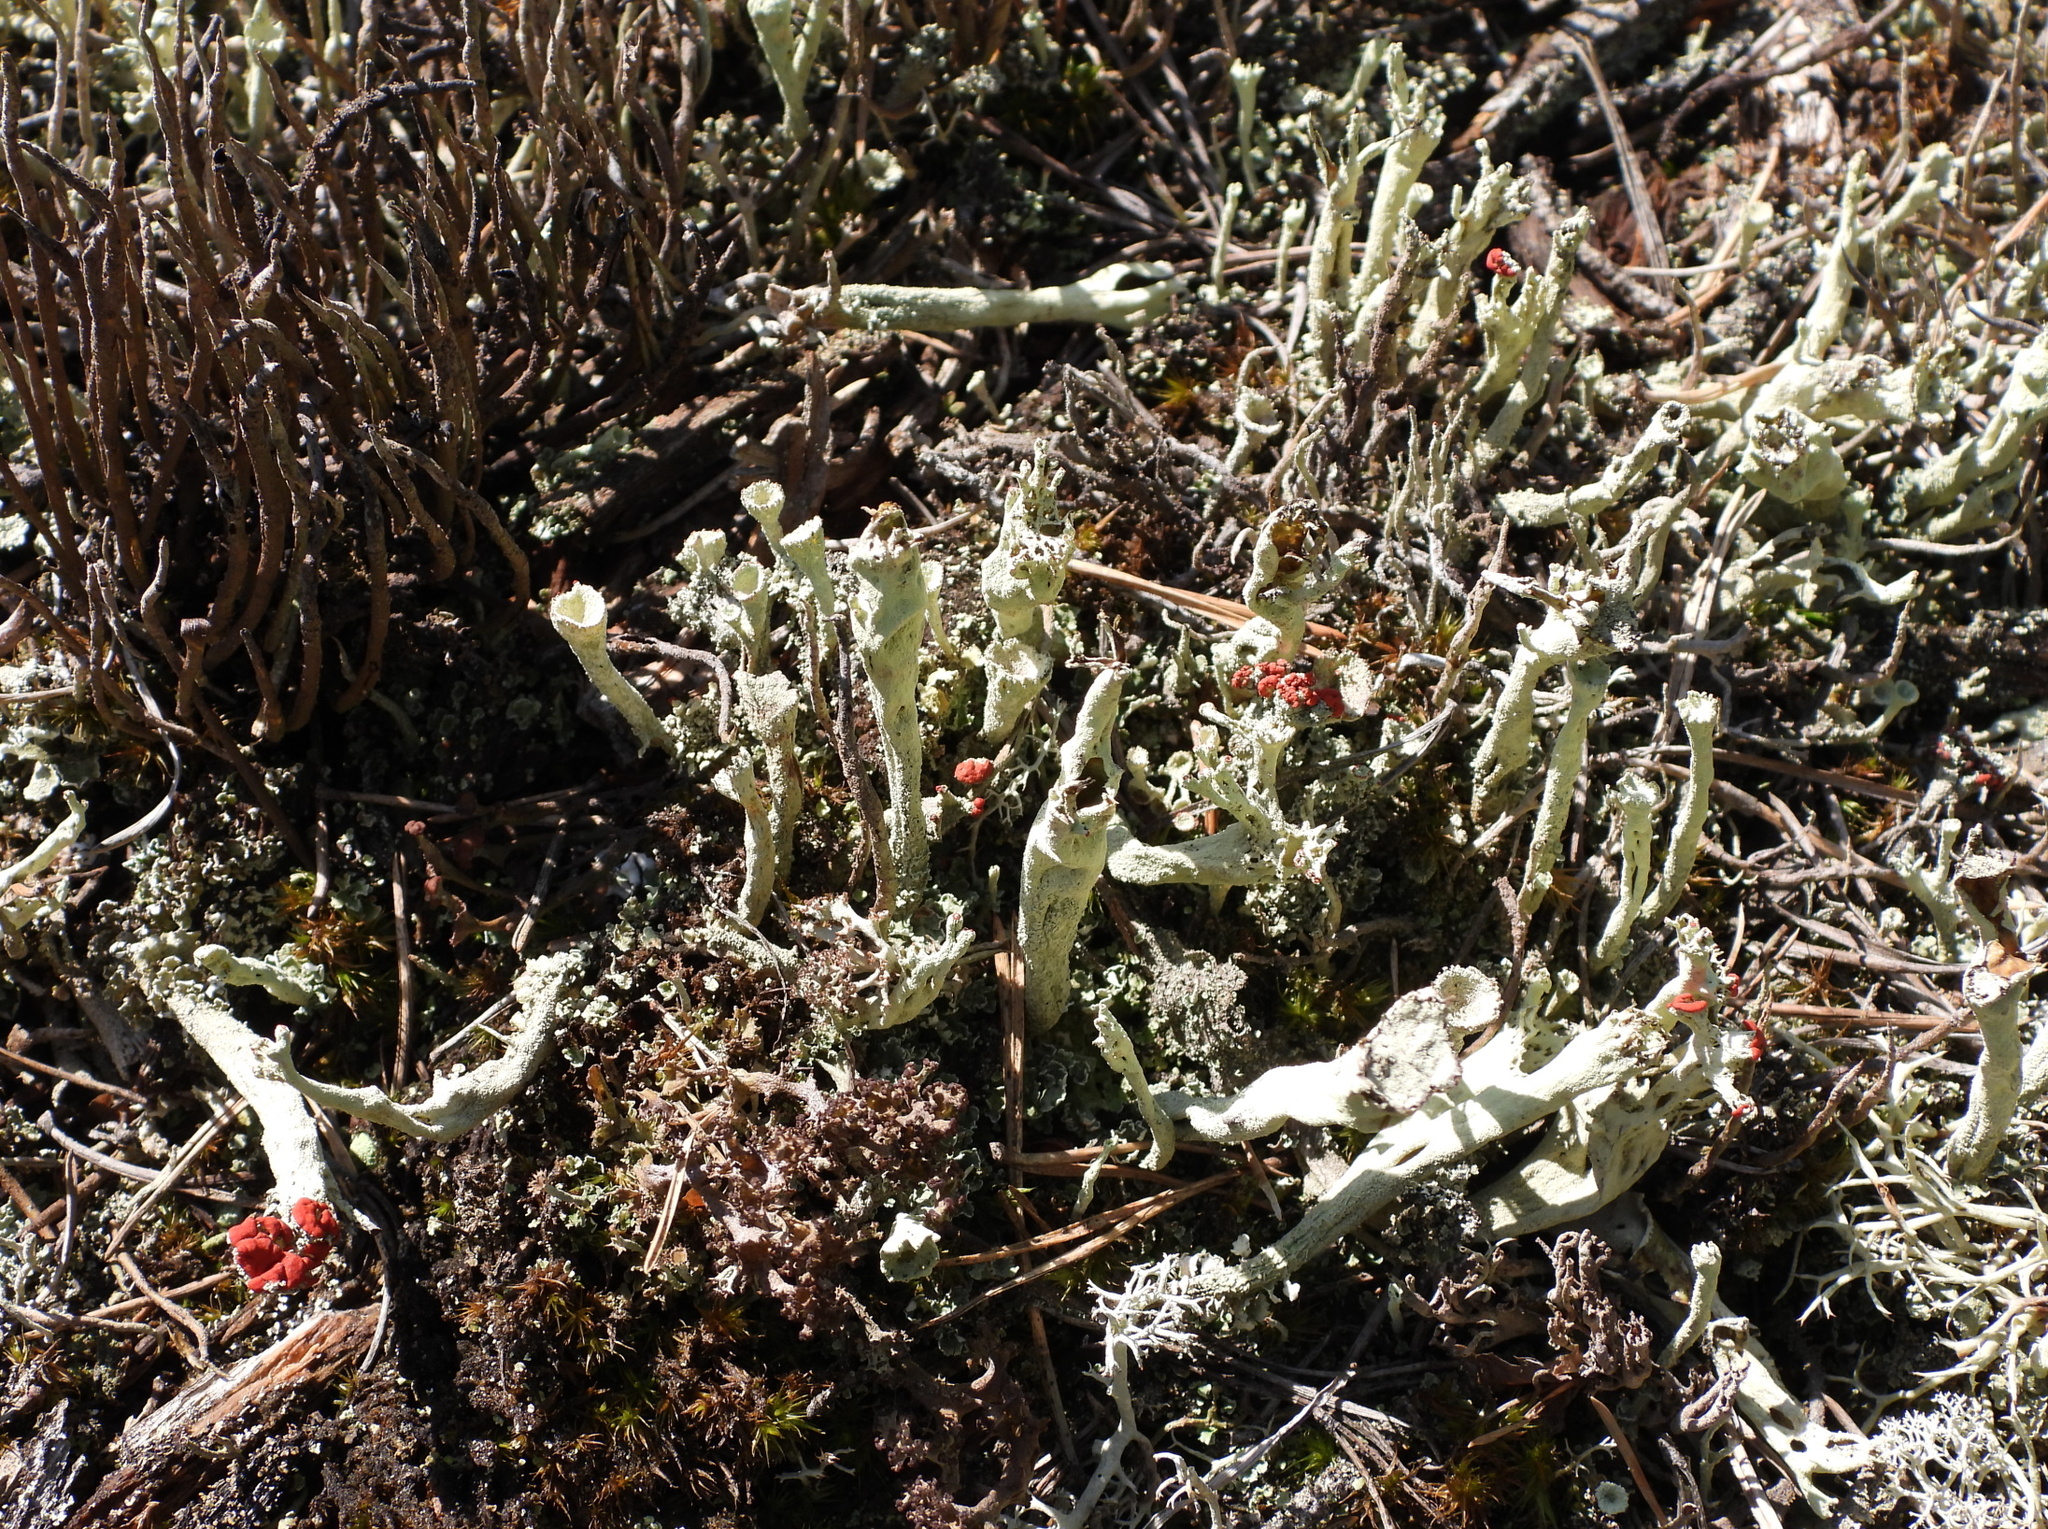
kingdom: Fungi
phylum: Ascomycota
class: Lecanoromycetes
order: Lecanorales
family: Cladoniaceae
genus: Cladonia
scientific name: Cladonia sulphurina
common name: Greater sulphur-cup lichen
